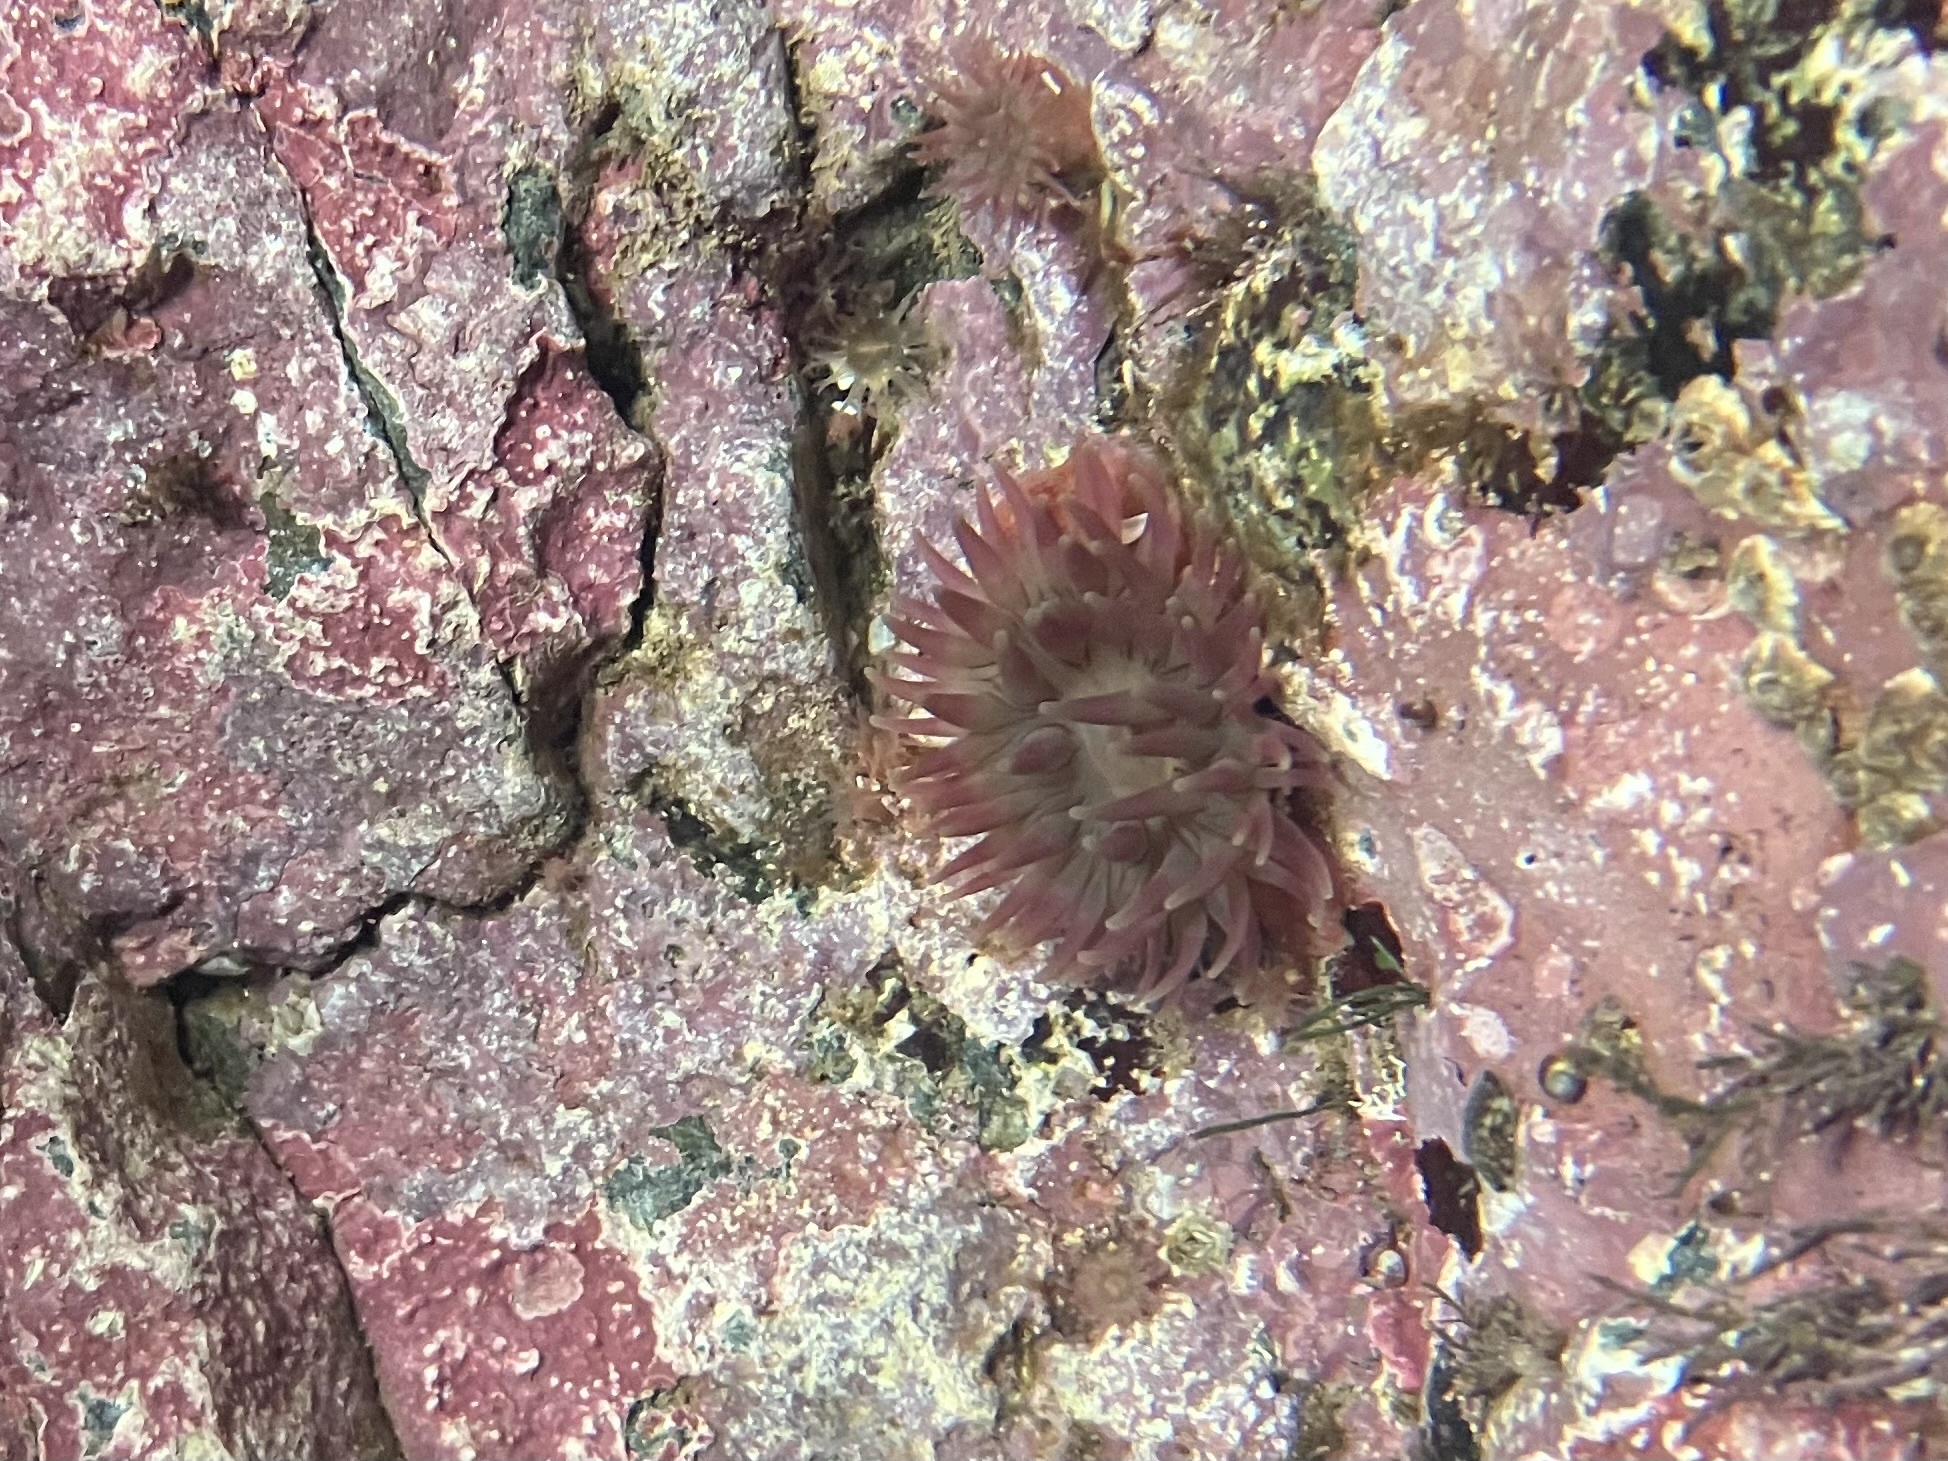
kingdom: Animalia
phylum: Cnidaria
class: Anthozoa
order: Actiniaria
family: Actiniidae
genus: Urticina
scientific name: Urticina crassicornis
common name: Mottled anemone
